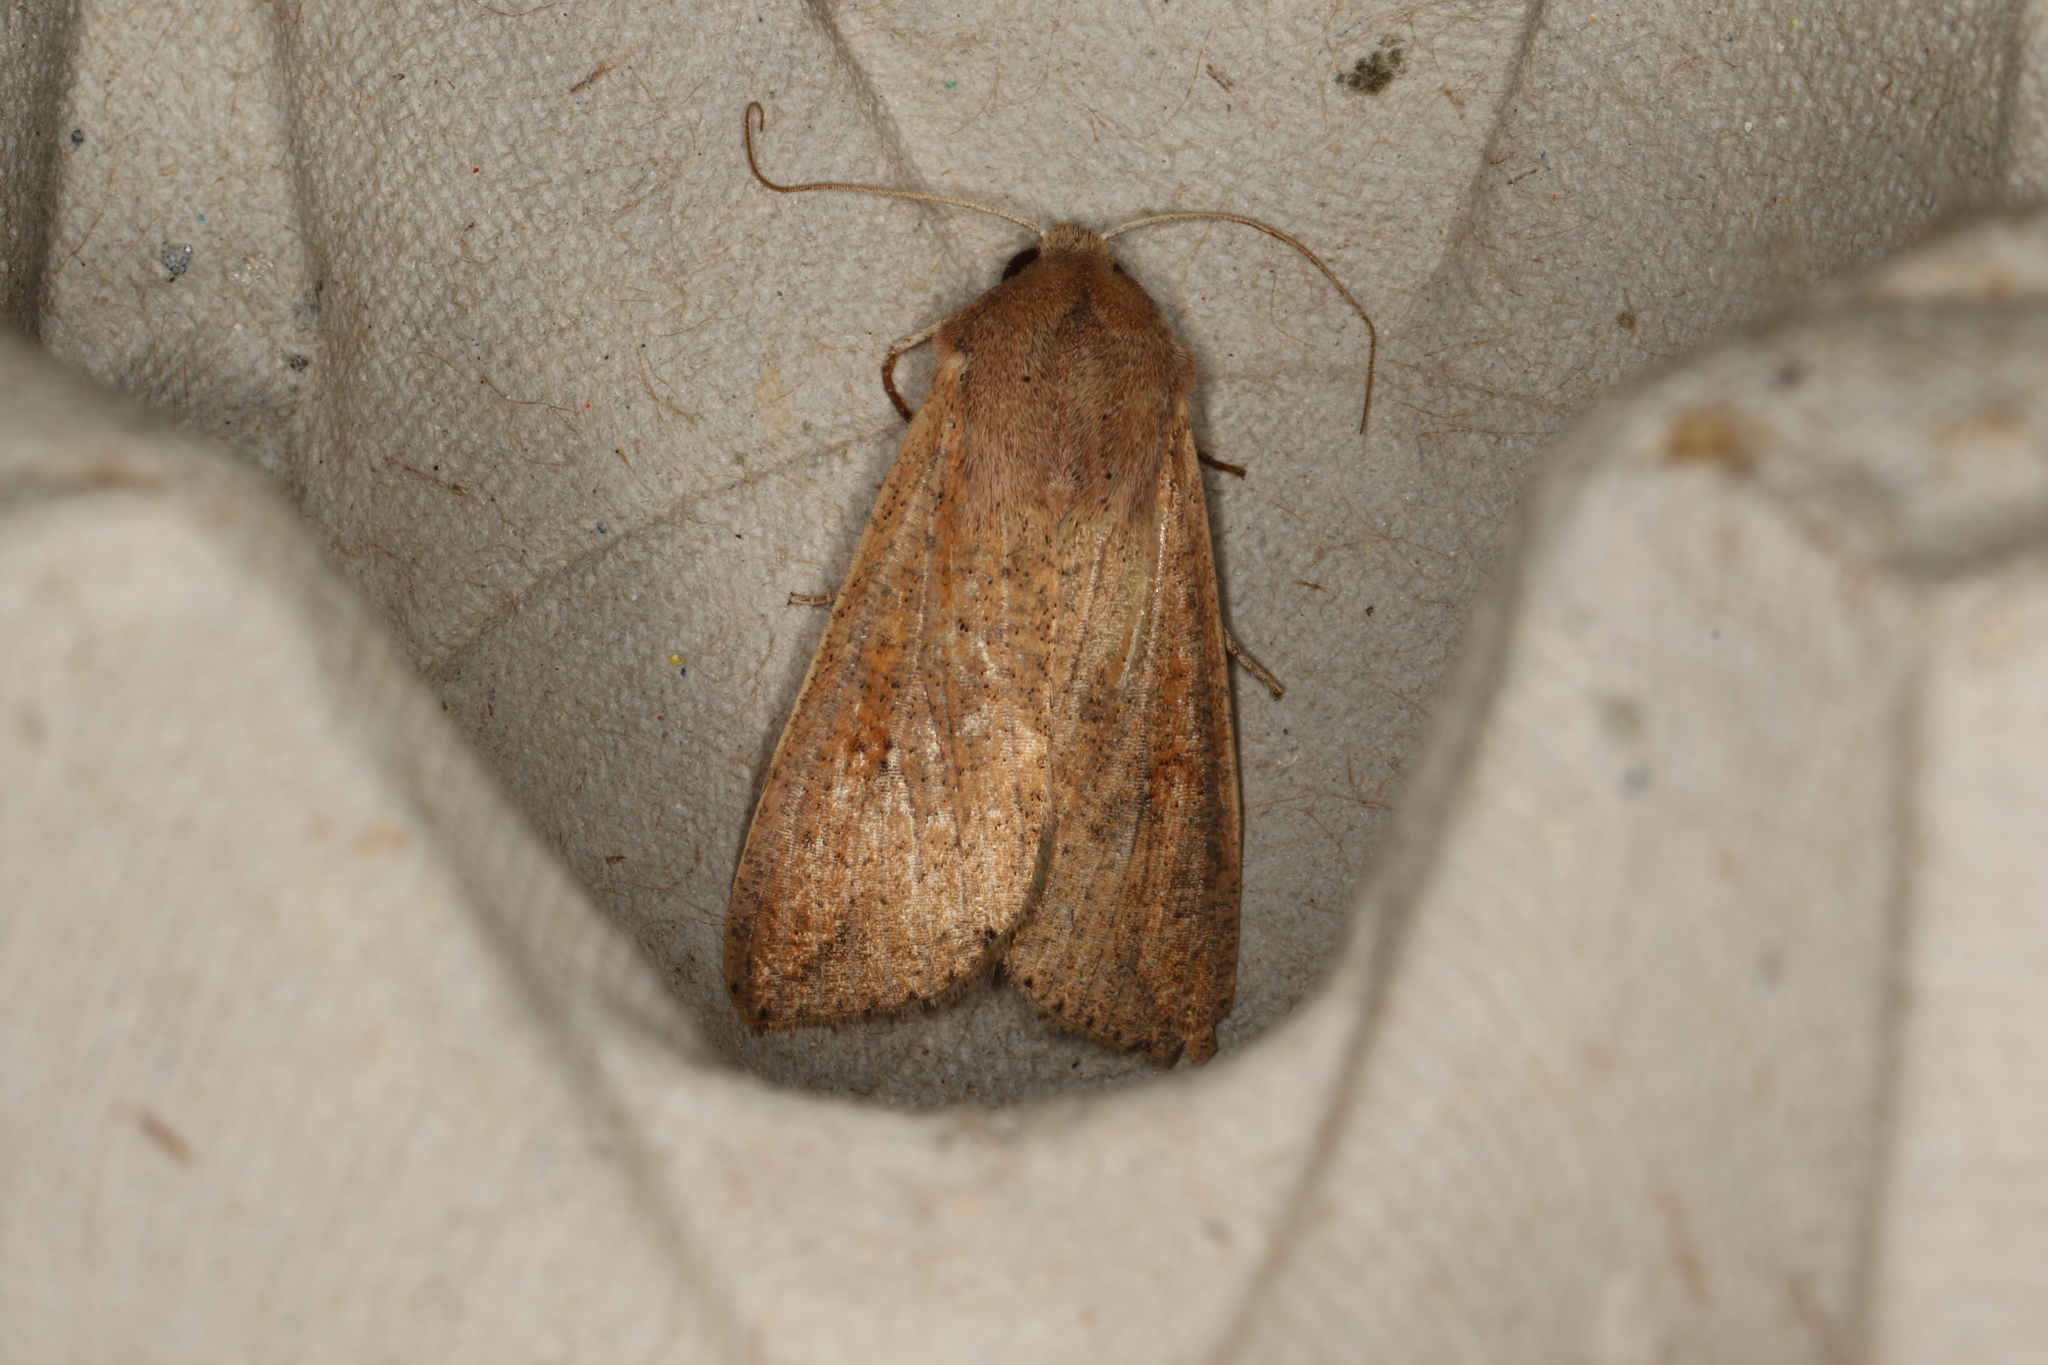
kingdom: Animalia
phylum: Arthropoda
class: Insecta
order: Lepidoptera
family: Noctuidae
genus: Mythimna
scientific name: Mythimna convecta
